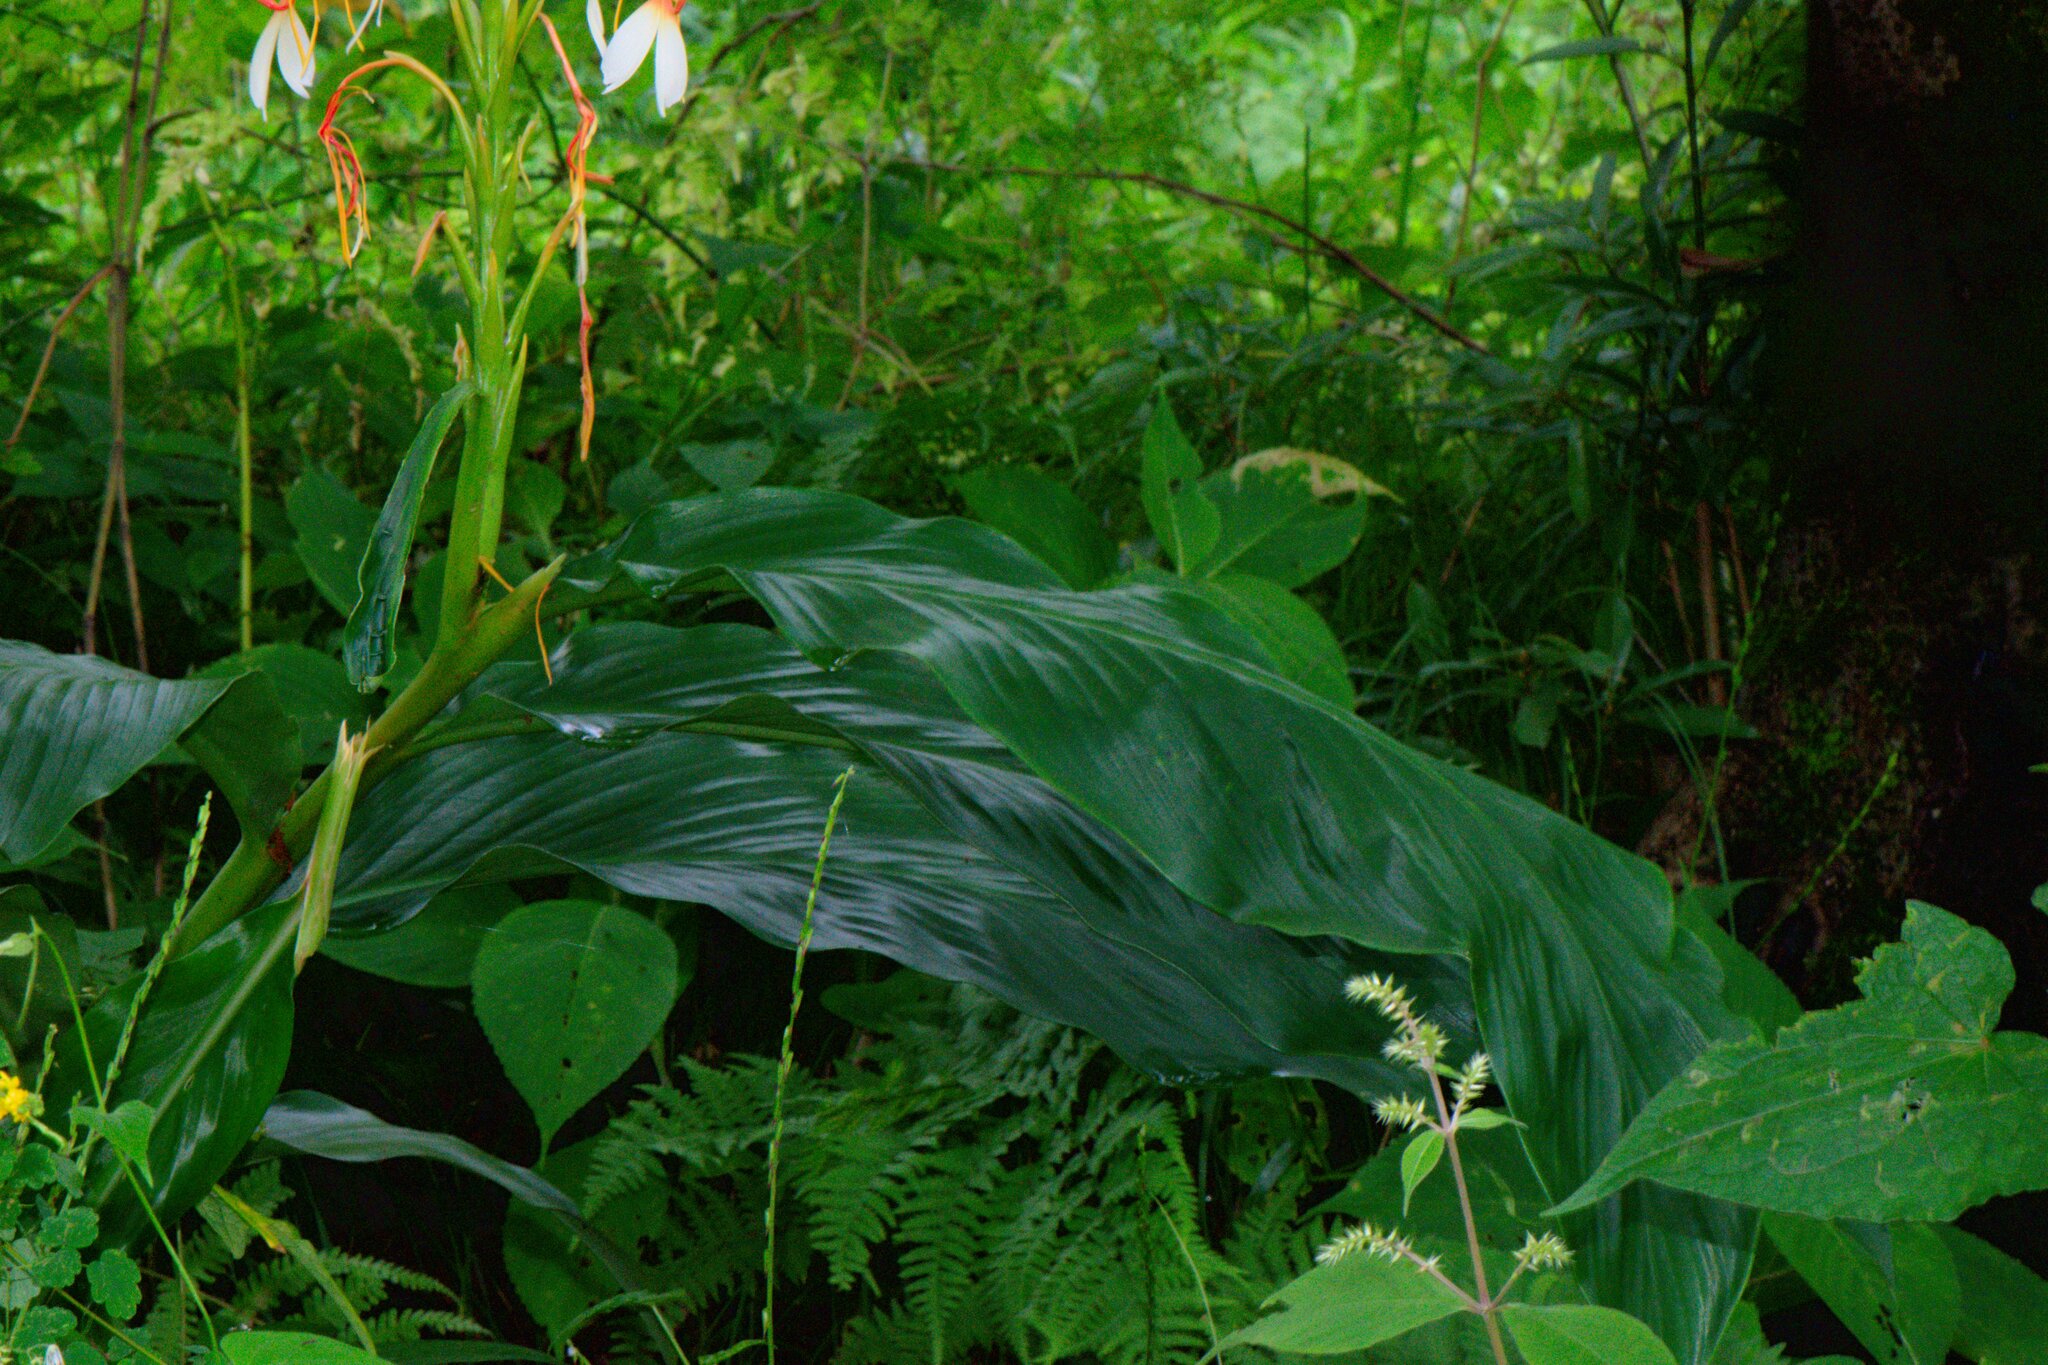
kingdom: Plantae
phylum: Tracheophyta
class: Liliopsida
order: Zingiberales
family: Zingiberaceae
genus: Hedychium
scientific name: Hedychium spicatum
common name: Spiked ginger-lily
